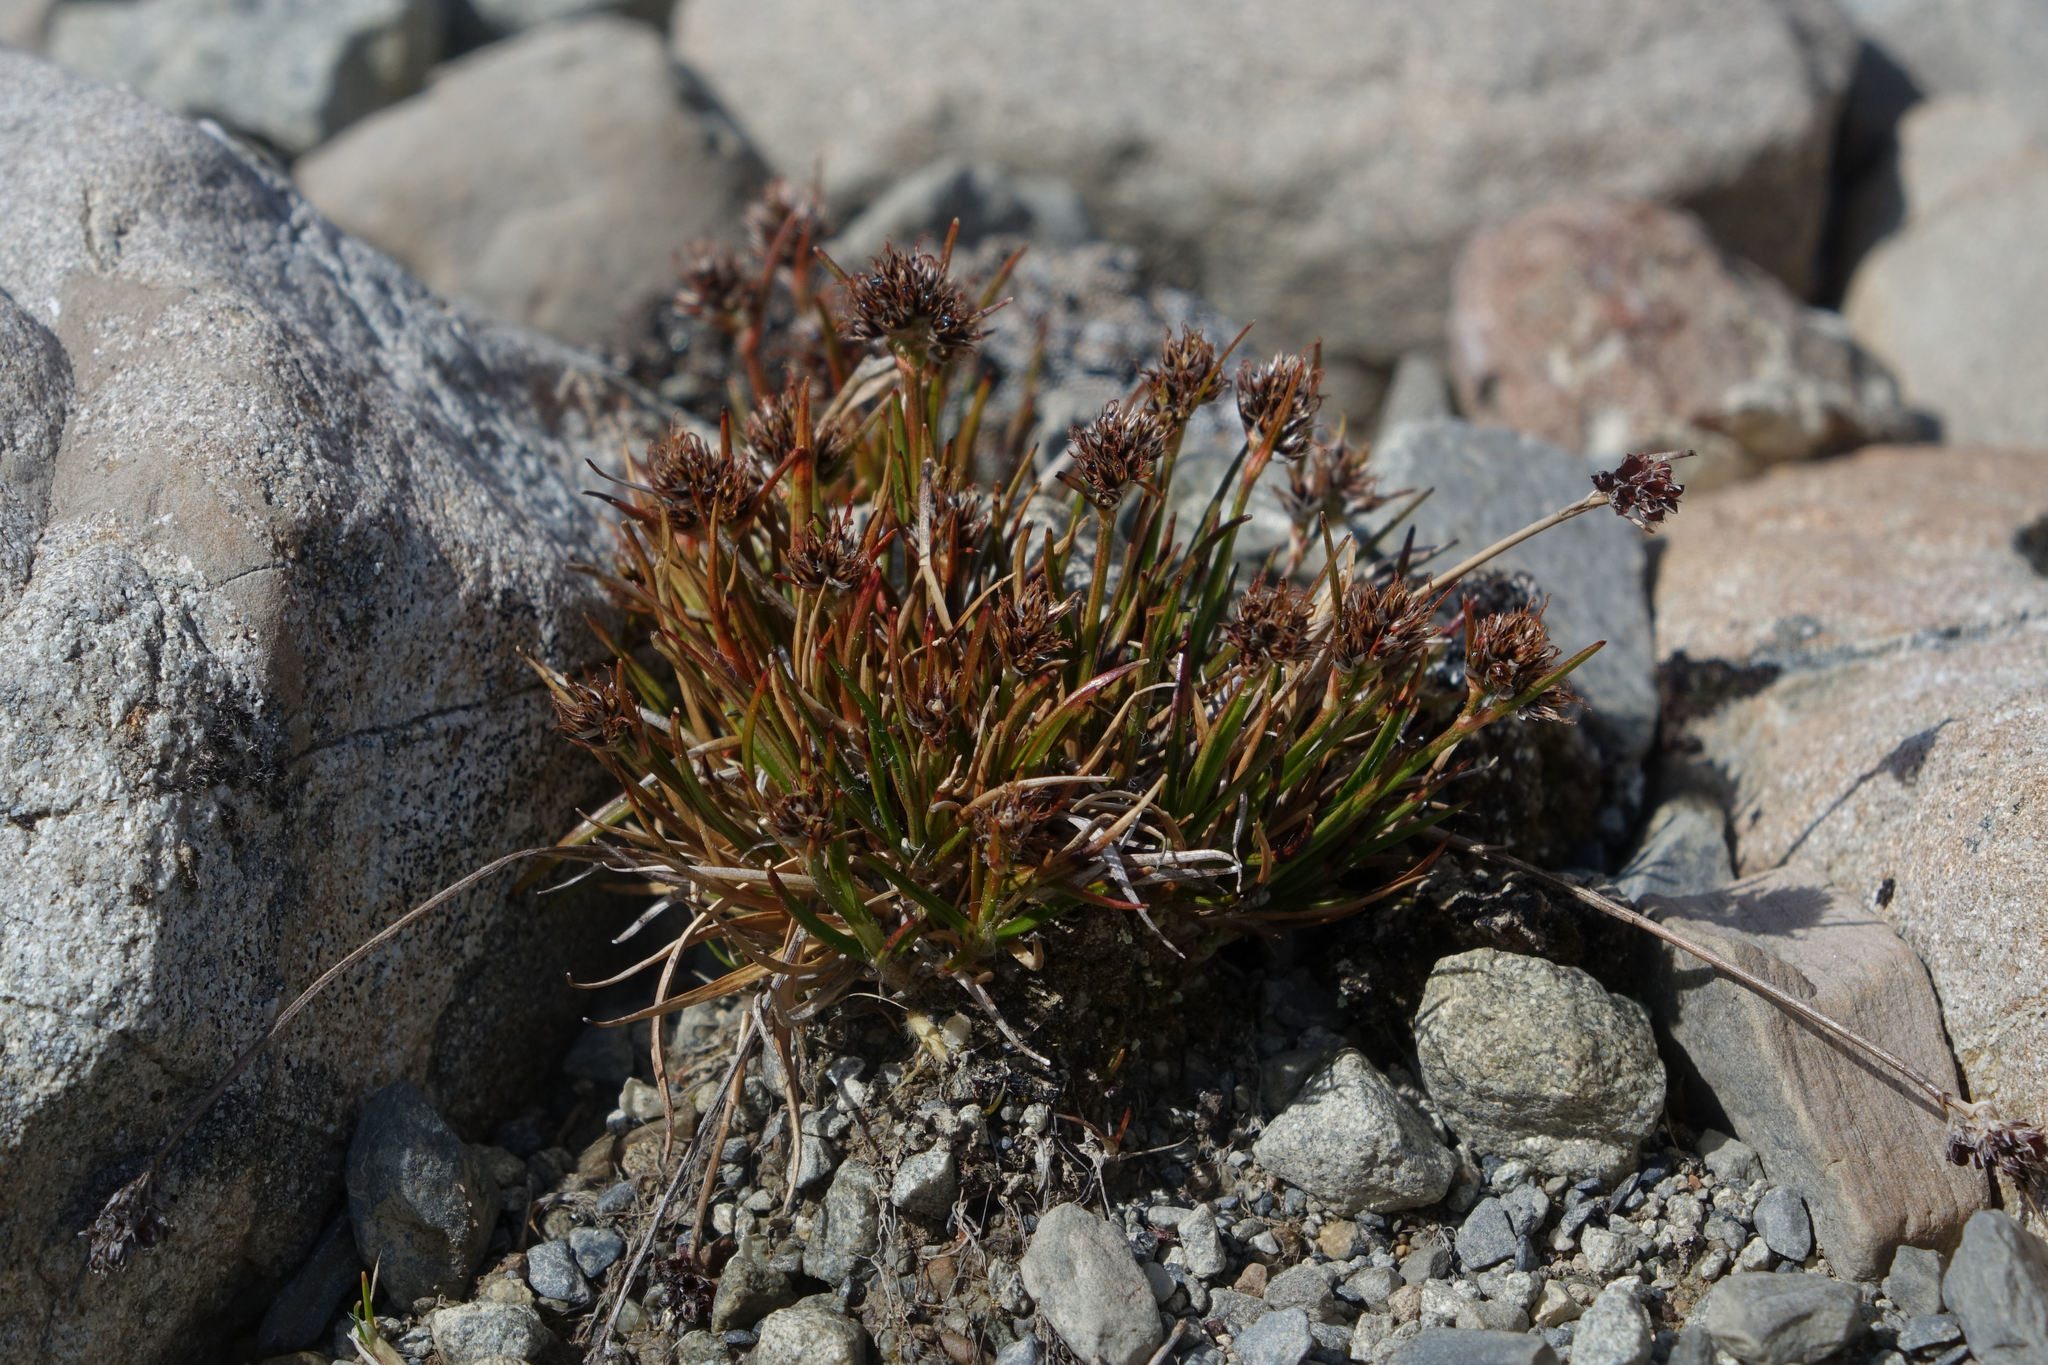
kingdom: Plantae
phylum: Tracheophyta
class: Liliopsida
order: Poales
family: Juncaceae
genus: Luzula
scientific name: Luzula pumila
